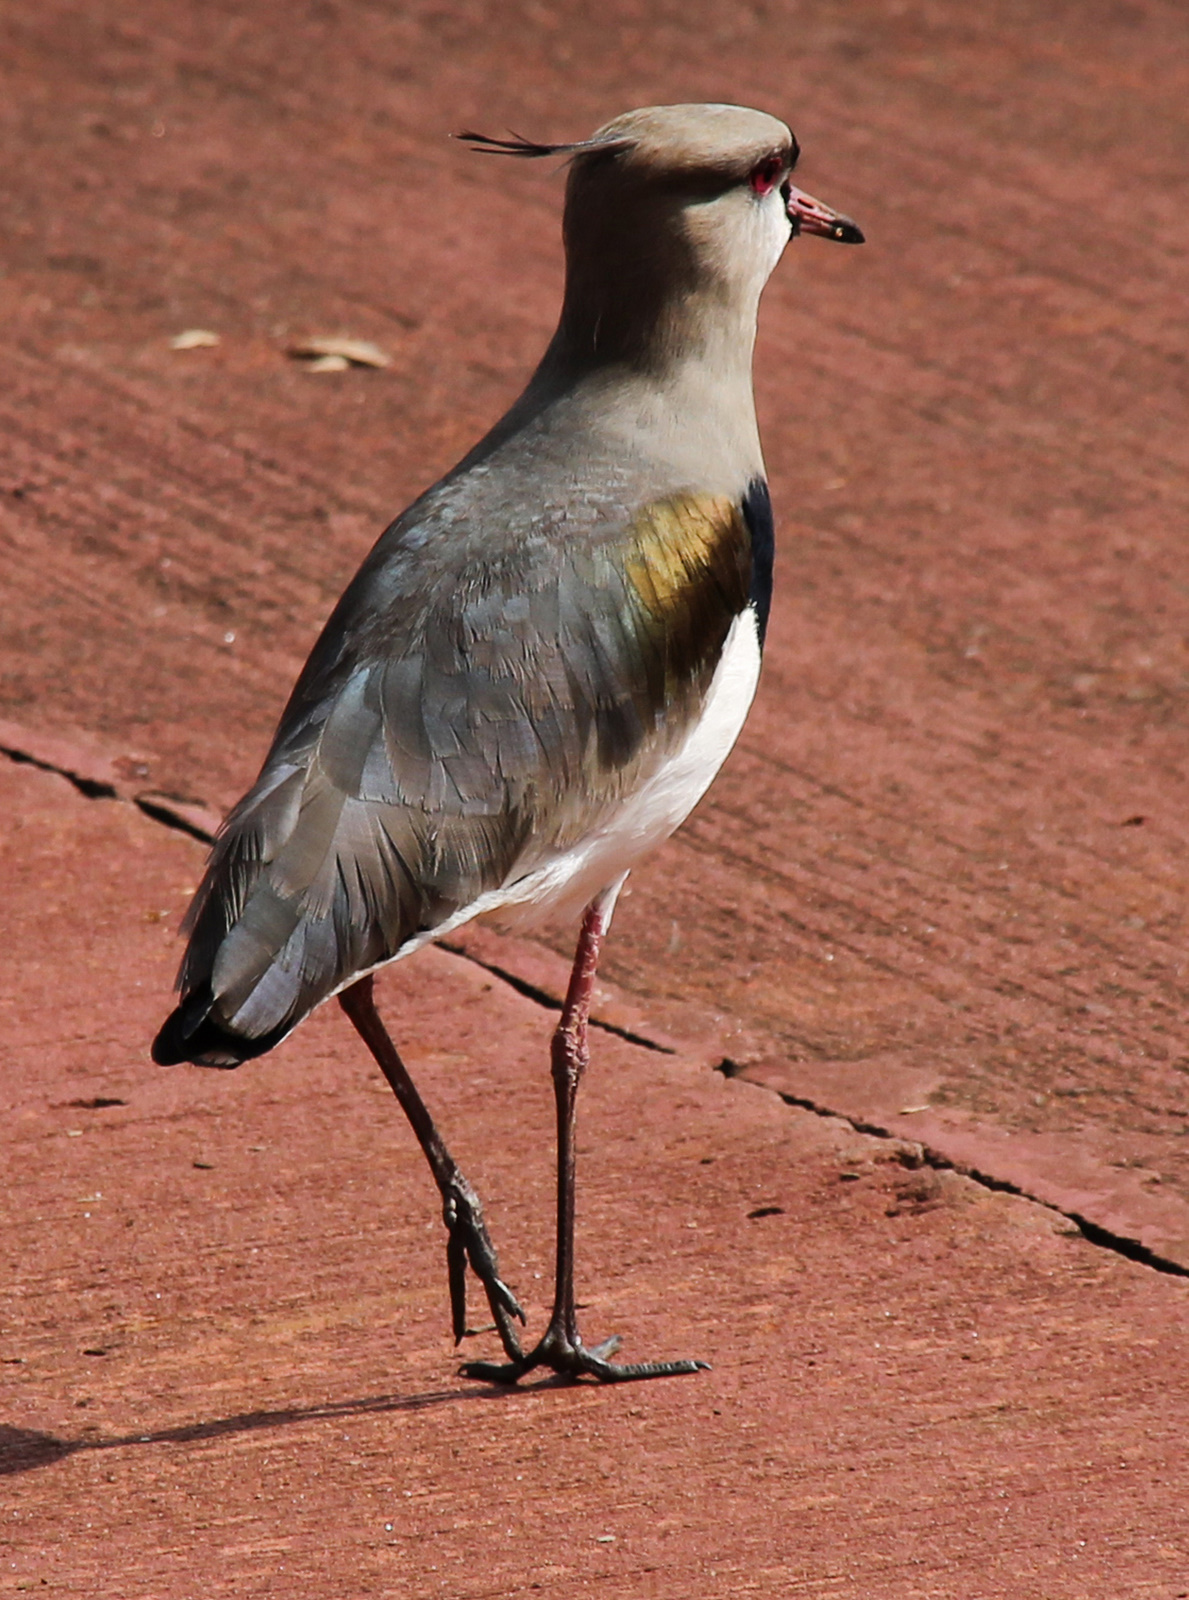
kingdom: Animalia
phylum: Chordata
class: Aves
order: Charadriiformes
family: Charadriidae
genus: Vanellus
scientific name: Vanellus chilensis
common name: Southern lapwing
